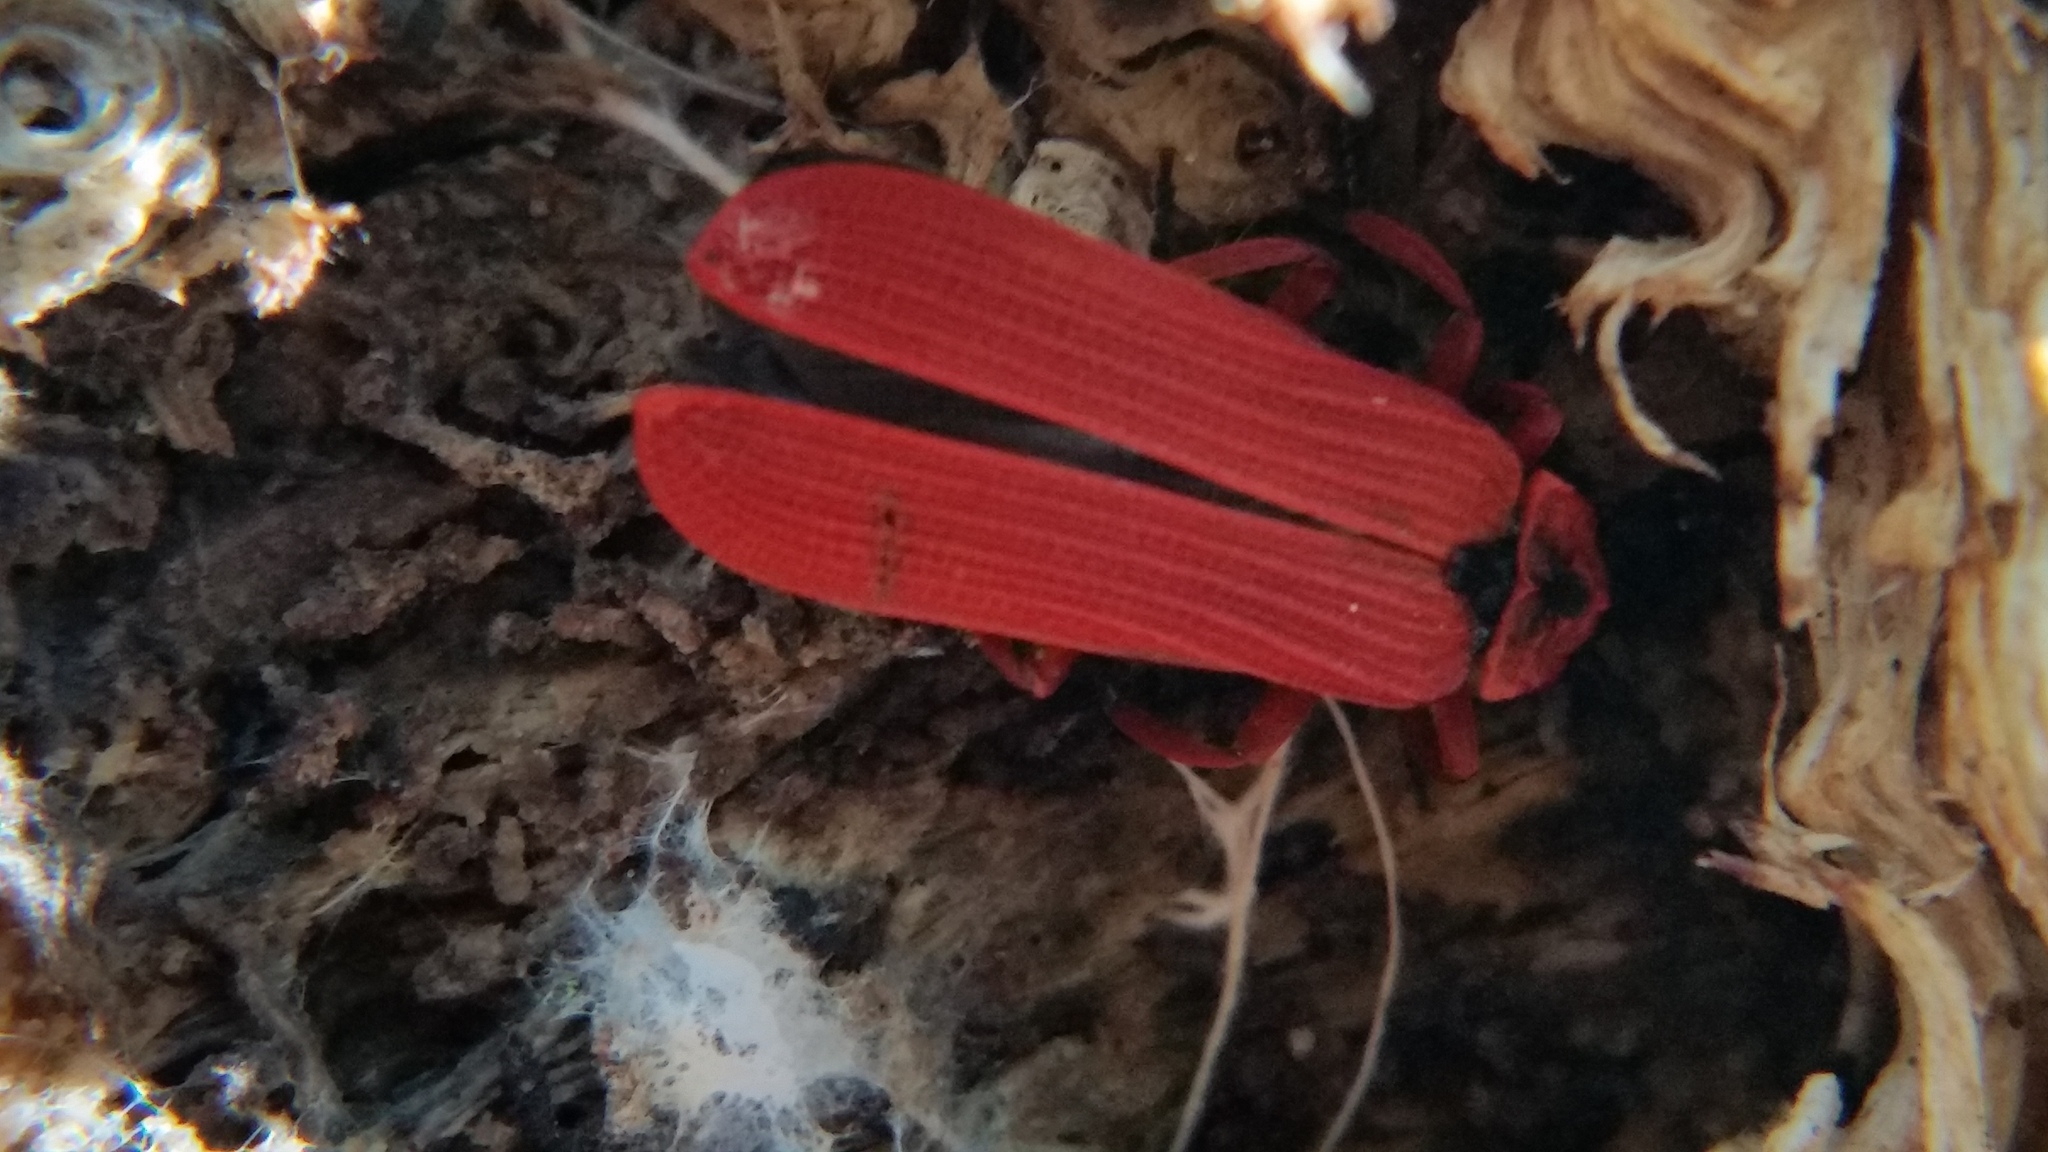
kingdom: Animalia
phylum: Arthropoda
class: Insecta
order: Coleoptera
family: Lycidae
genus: Dictyoptera
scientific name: Dictyoptera simplicipes
